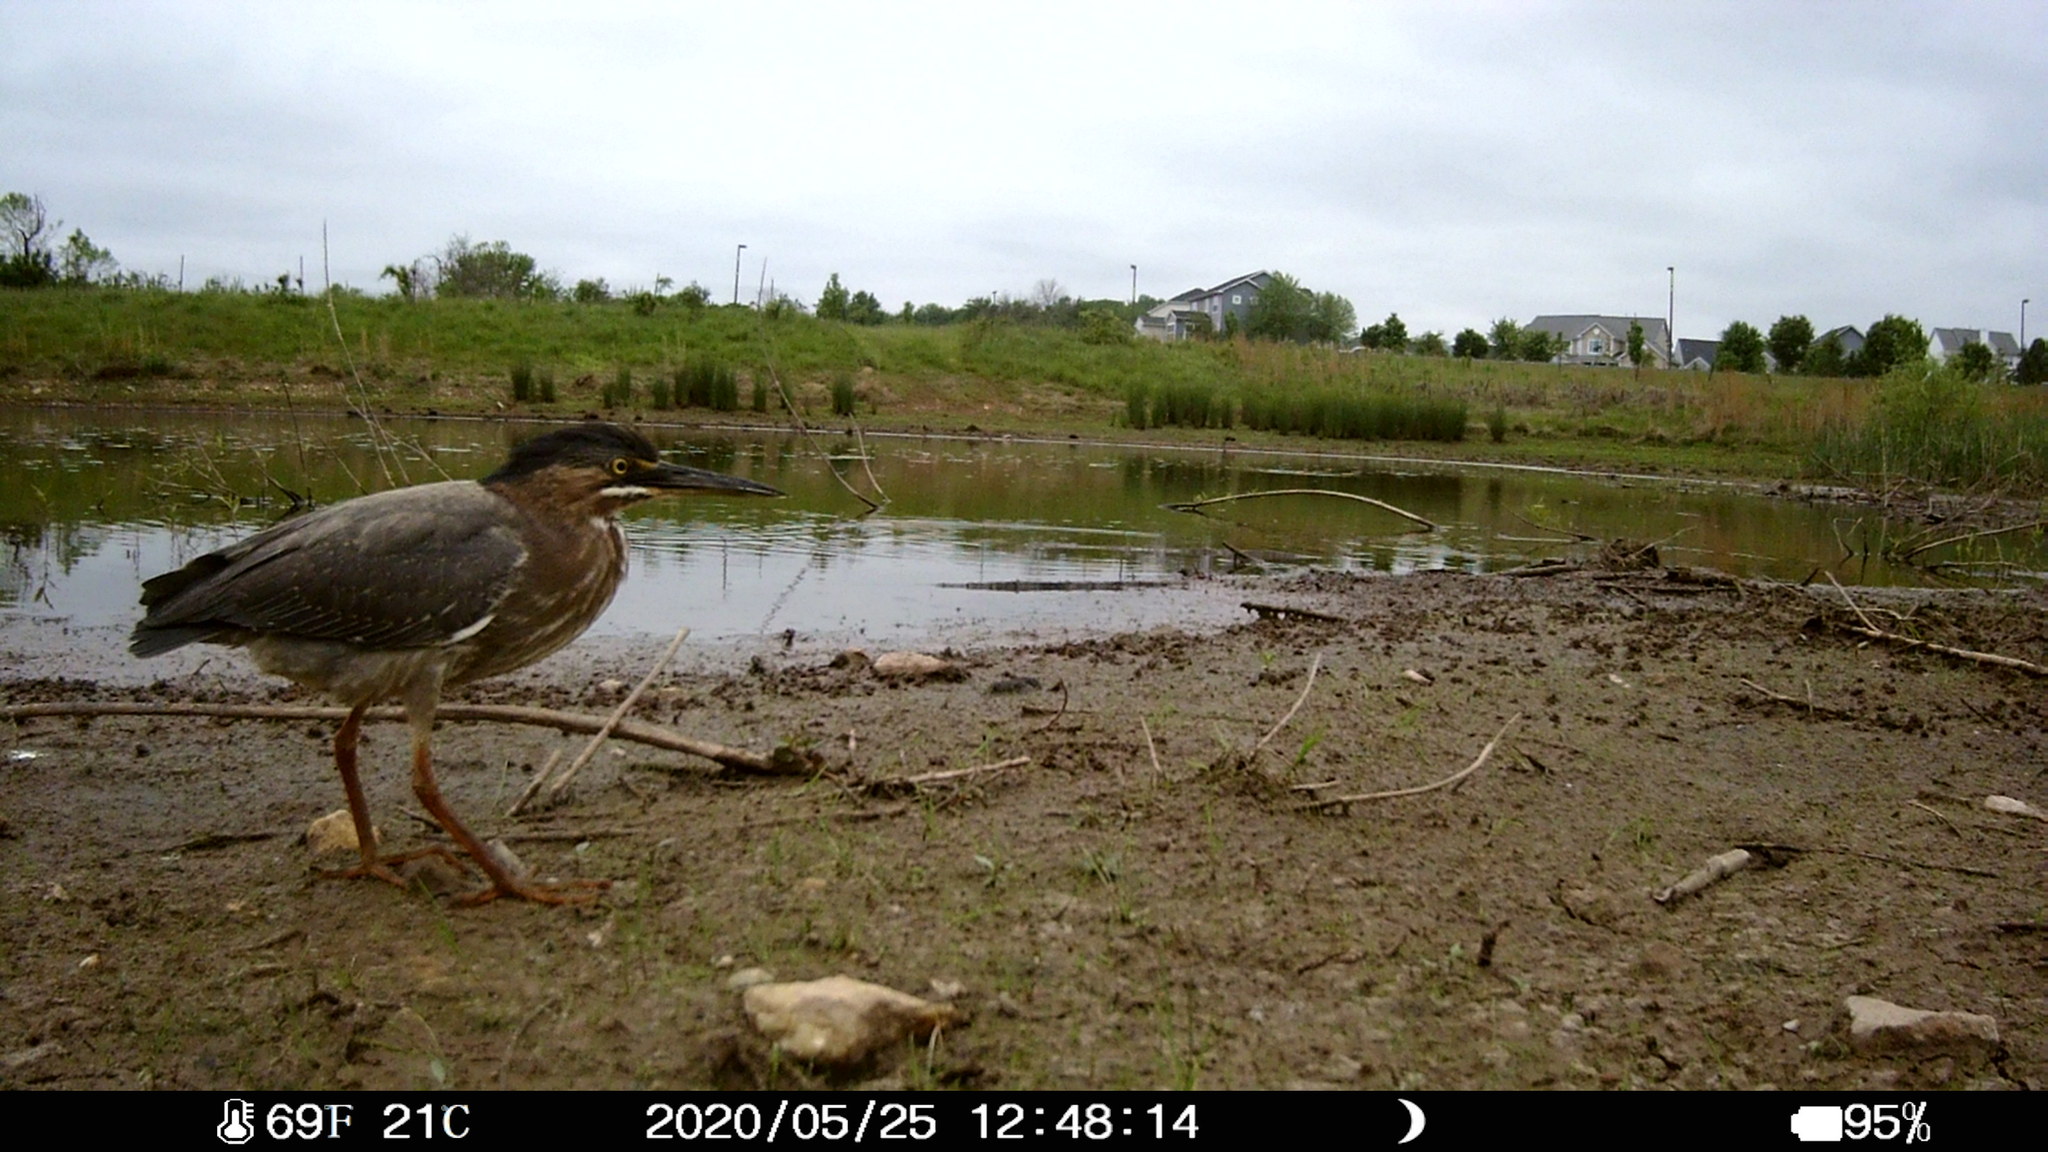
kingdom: Animalia
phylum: Chordata
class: Aves
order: Pelecaniformes
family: Ardeidae
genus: Butorides
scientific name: Butorides virescens
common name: Green heron
